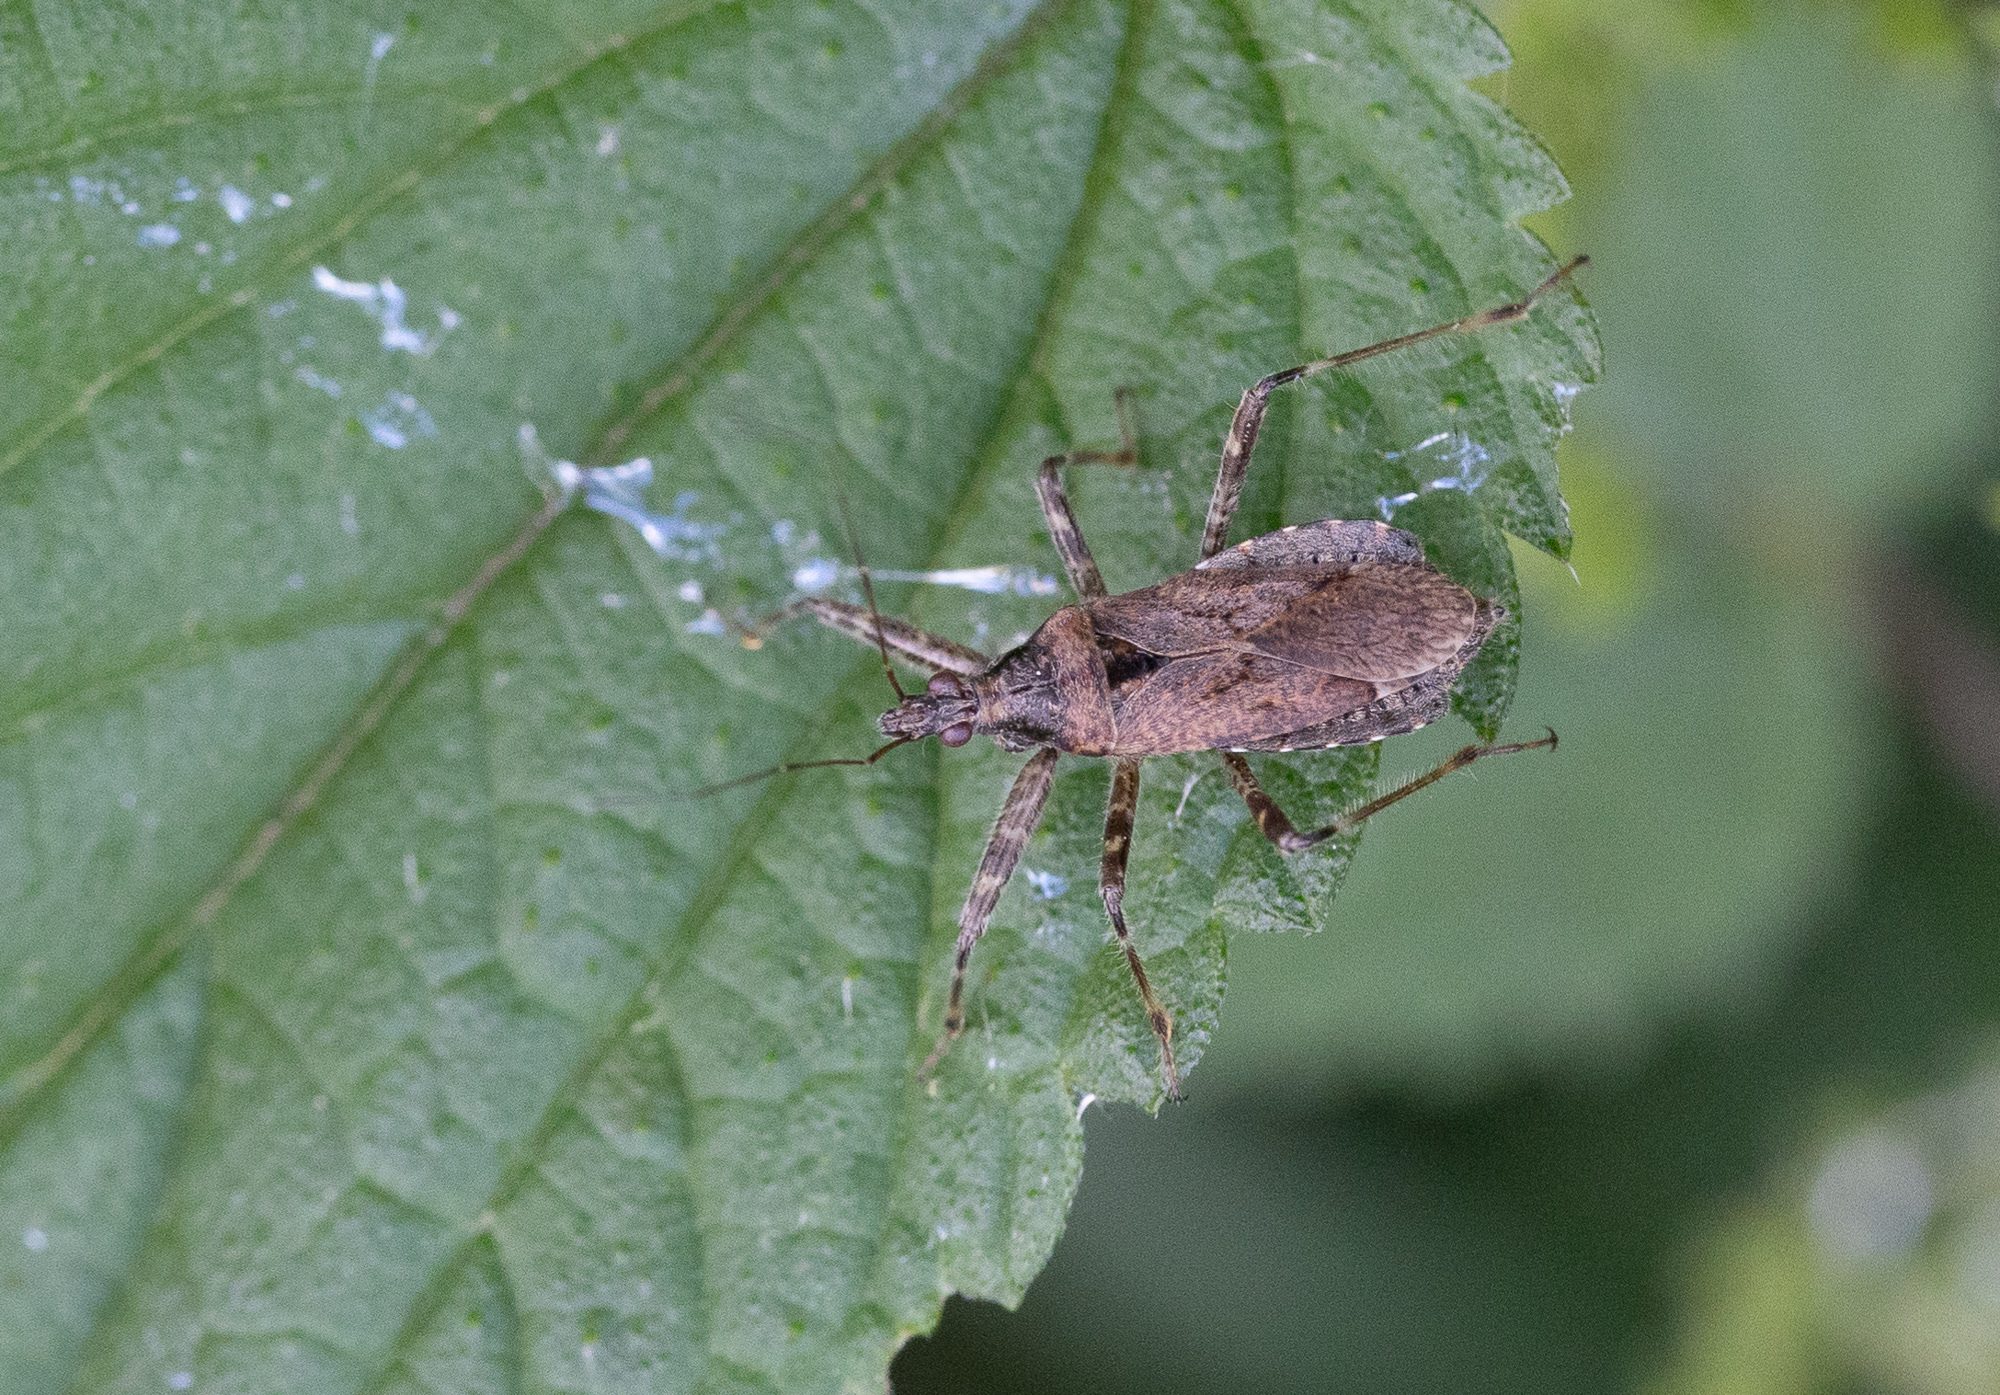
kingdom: Animalia
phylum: Arthropoda
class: Insecta
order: Hemiptera
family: Nabidae
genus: Himacerus
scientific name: Himacerus apterus
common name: Tree damsel bug
